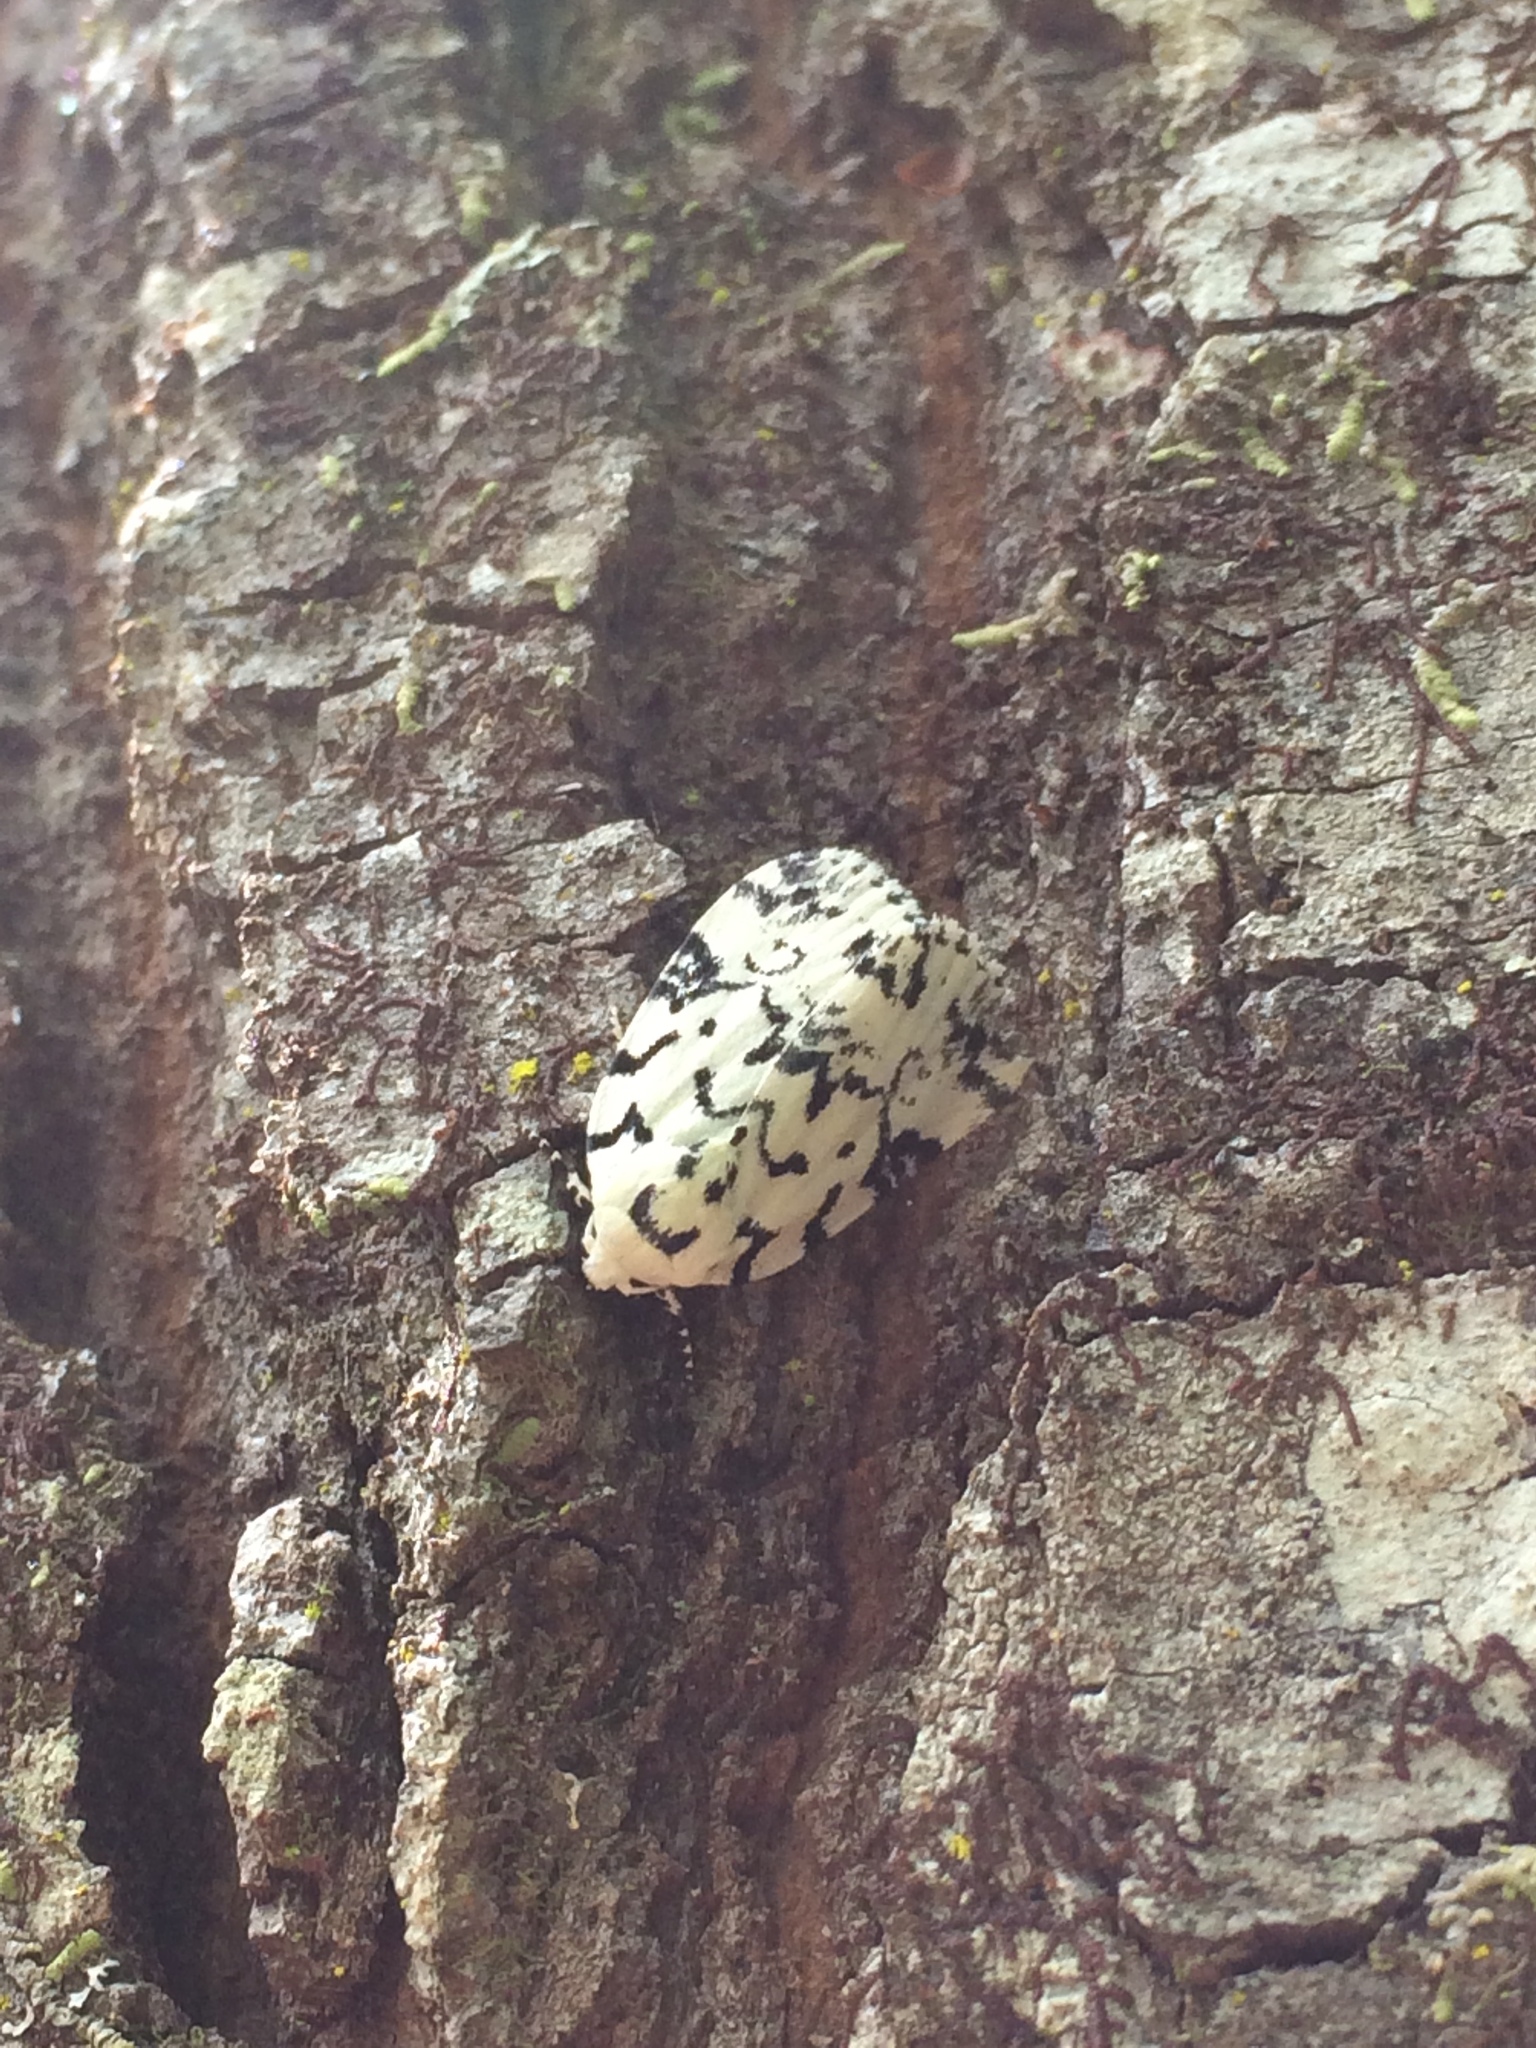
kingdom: Animalia
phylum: Arthropoda
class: Insecta
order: Lepidoptera
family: Noctuidae
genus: Polygrammate
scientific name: Polygrammate hebraeicum
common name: Hebrew moth
